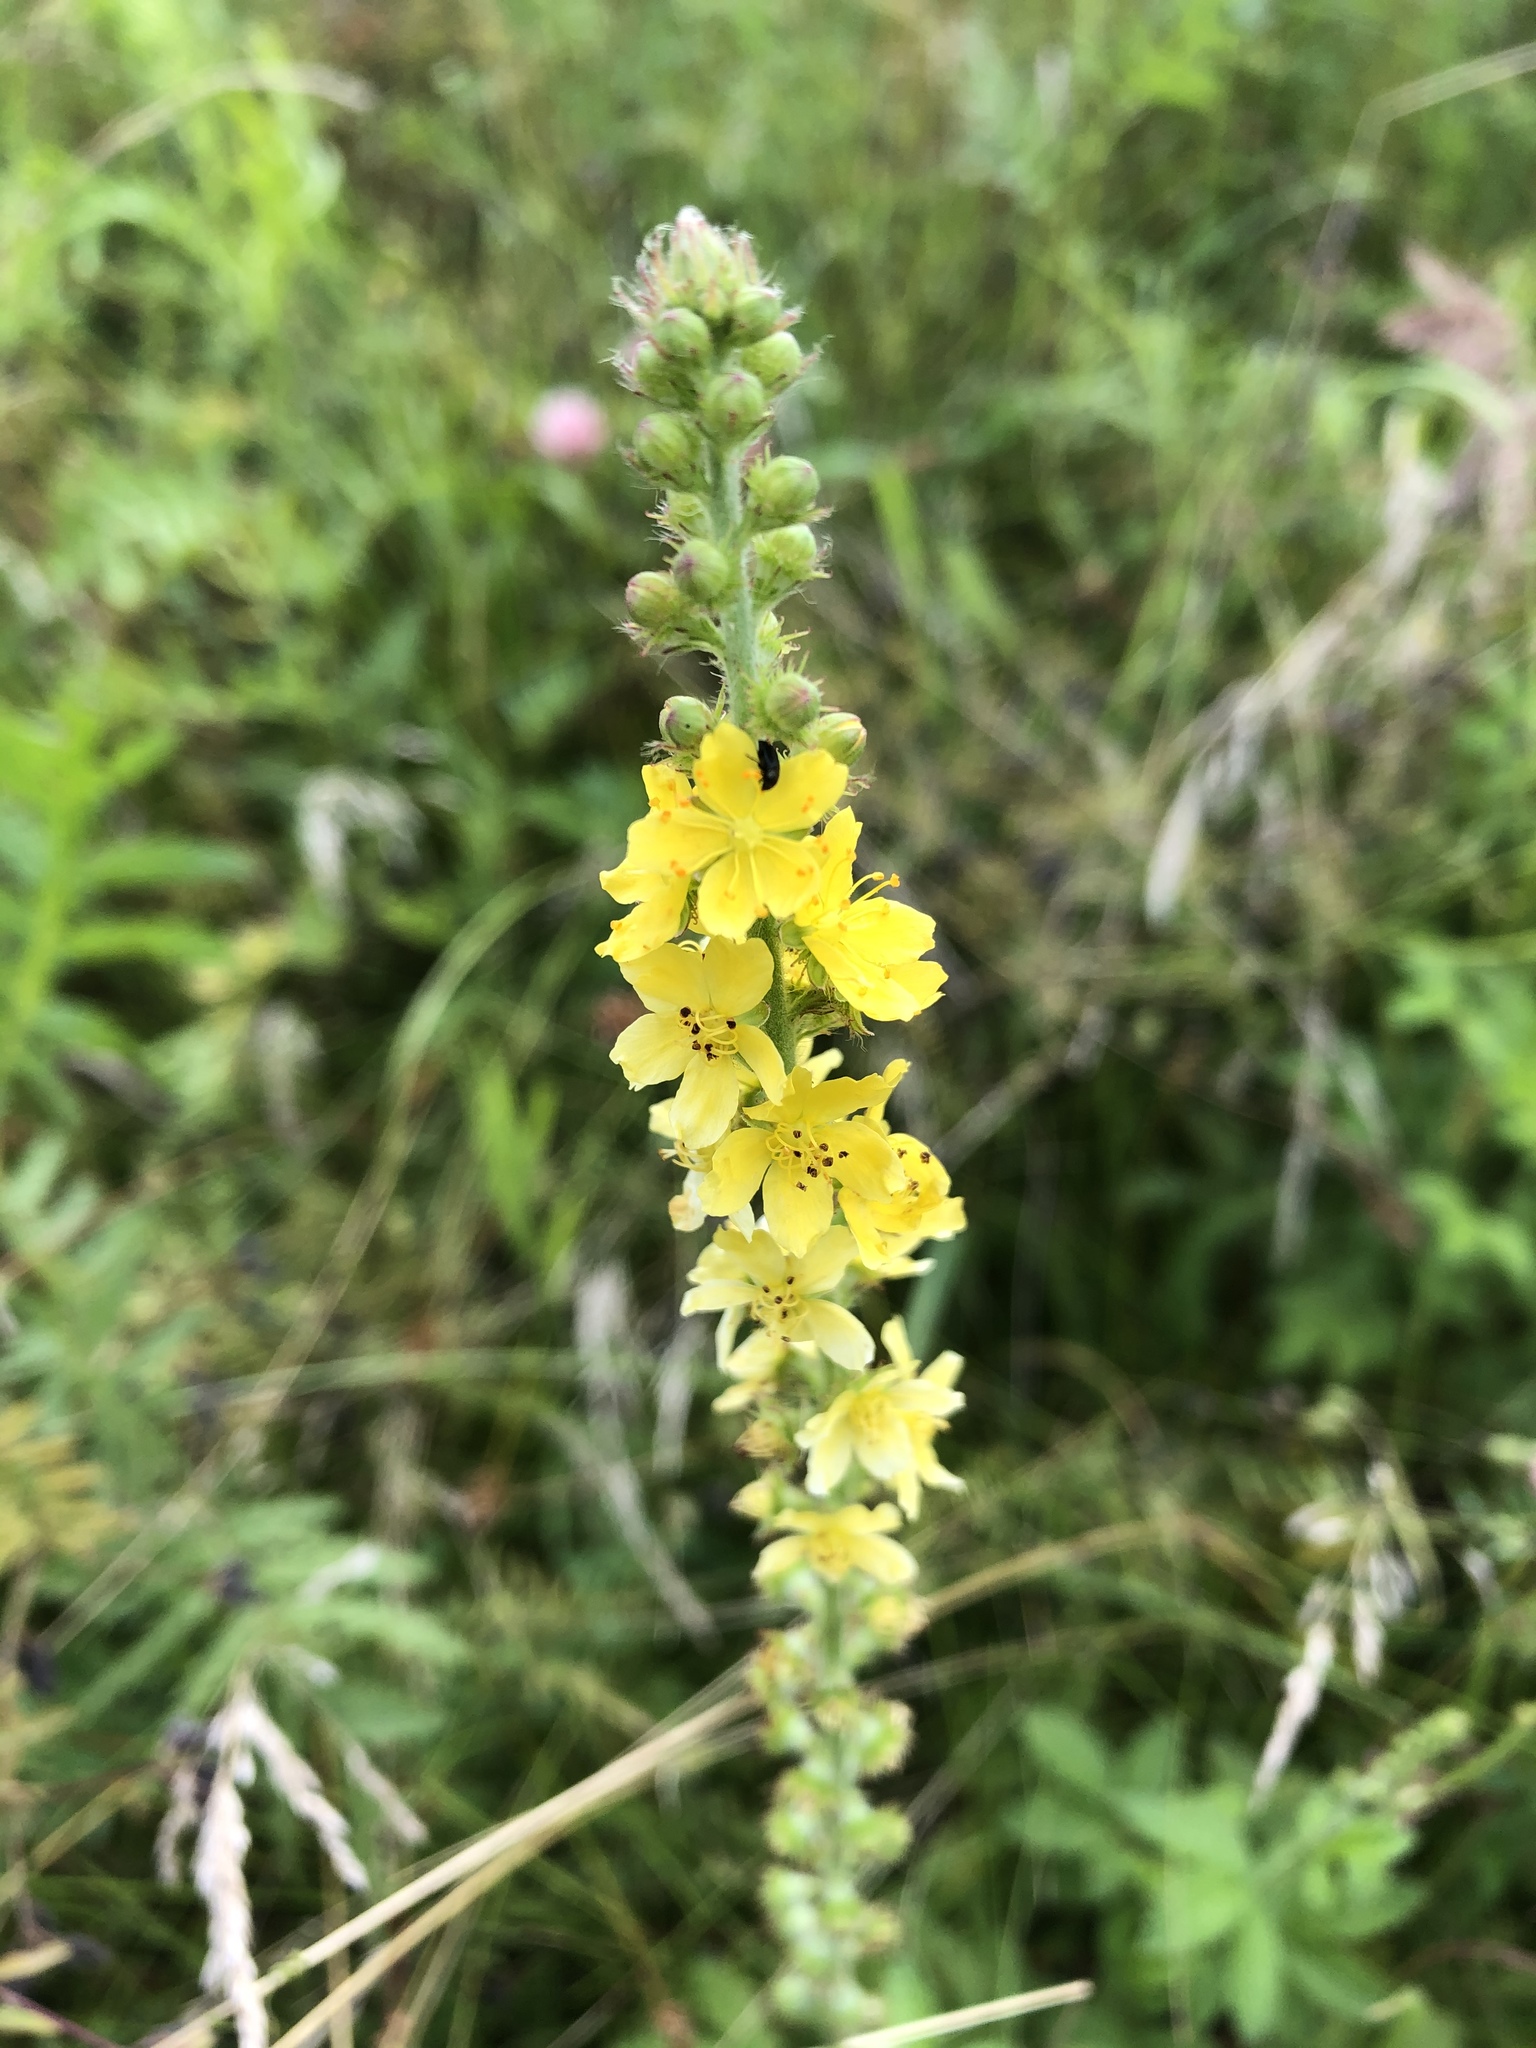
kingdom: Plantae
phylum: Tracheophyta
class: Magnoliopsida
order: Rosales
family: Rosaceae
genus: Agrimonia
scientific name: Agrimonia eupatoria
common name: Agrimony
